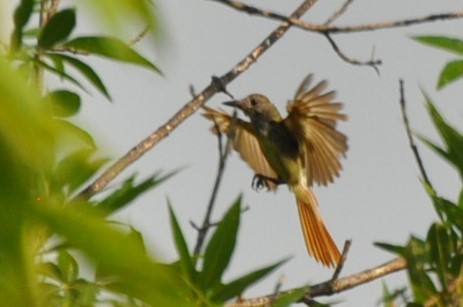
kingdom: Animalia
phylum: Chordata
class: Aves
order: Passeriformes
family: Tyrannidae
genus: Myiarchus
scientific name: Myiarchus crinitus
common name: Great crested flycatcher
